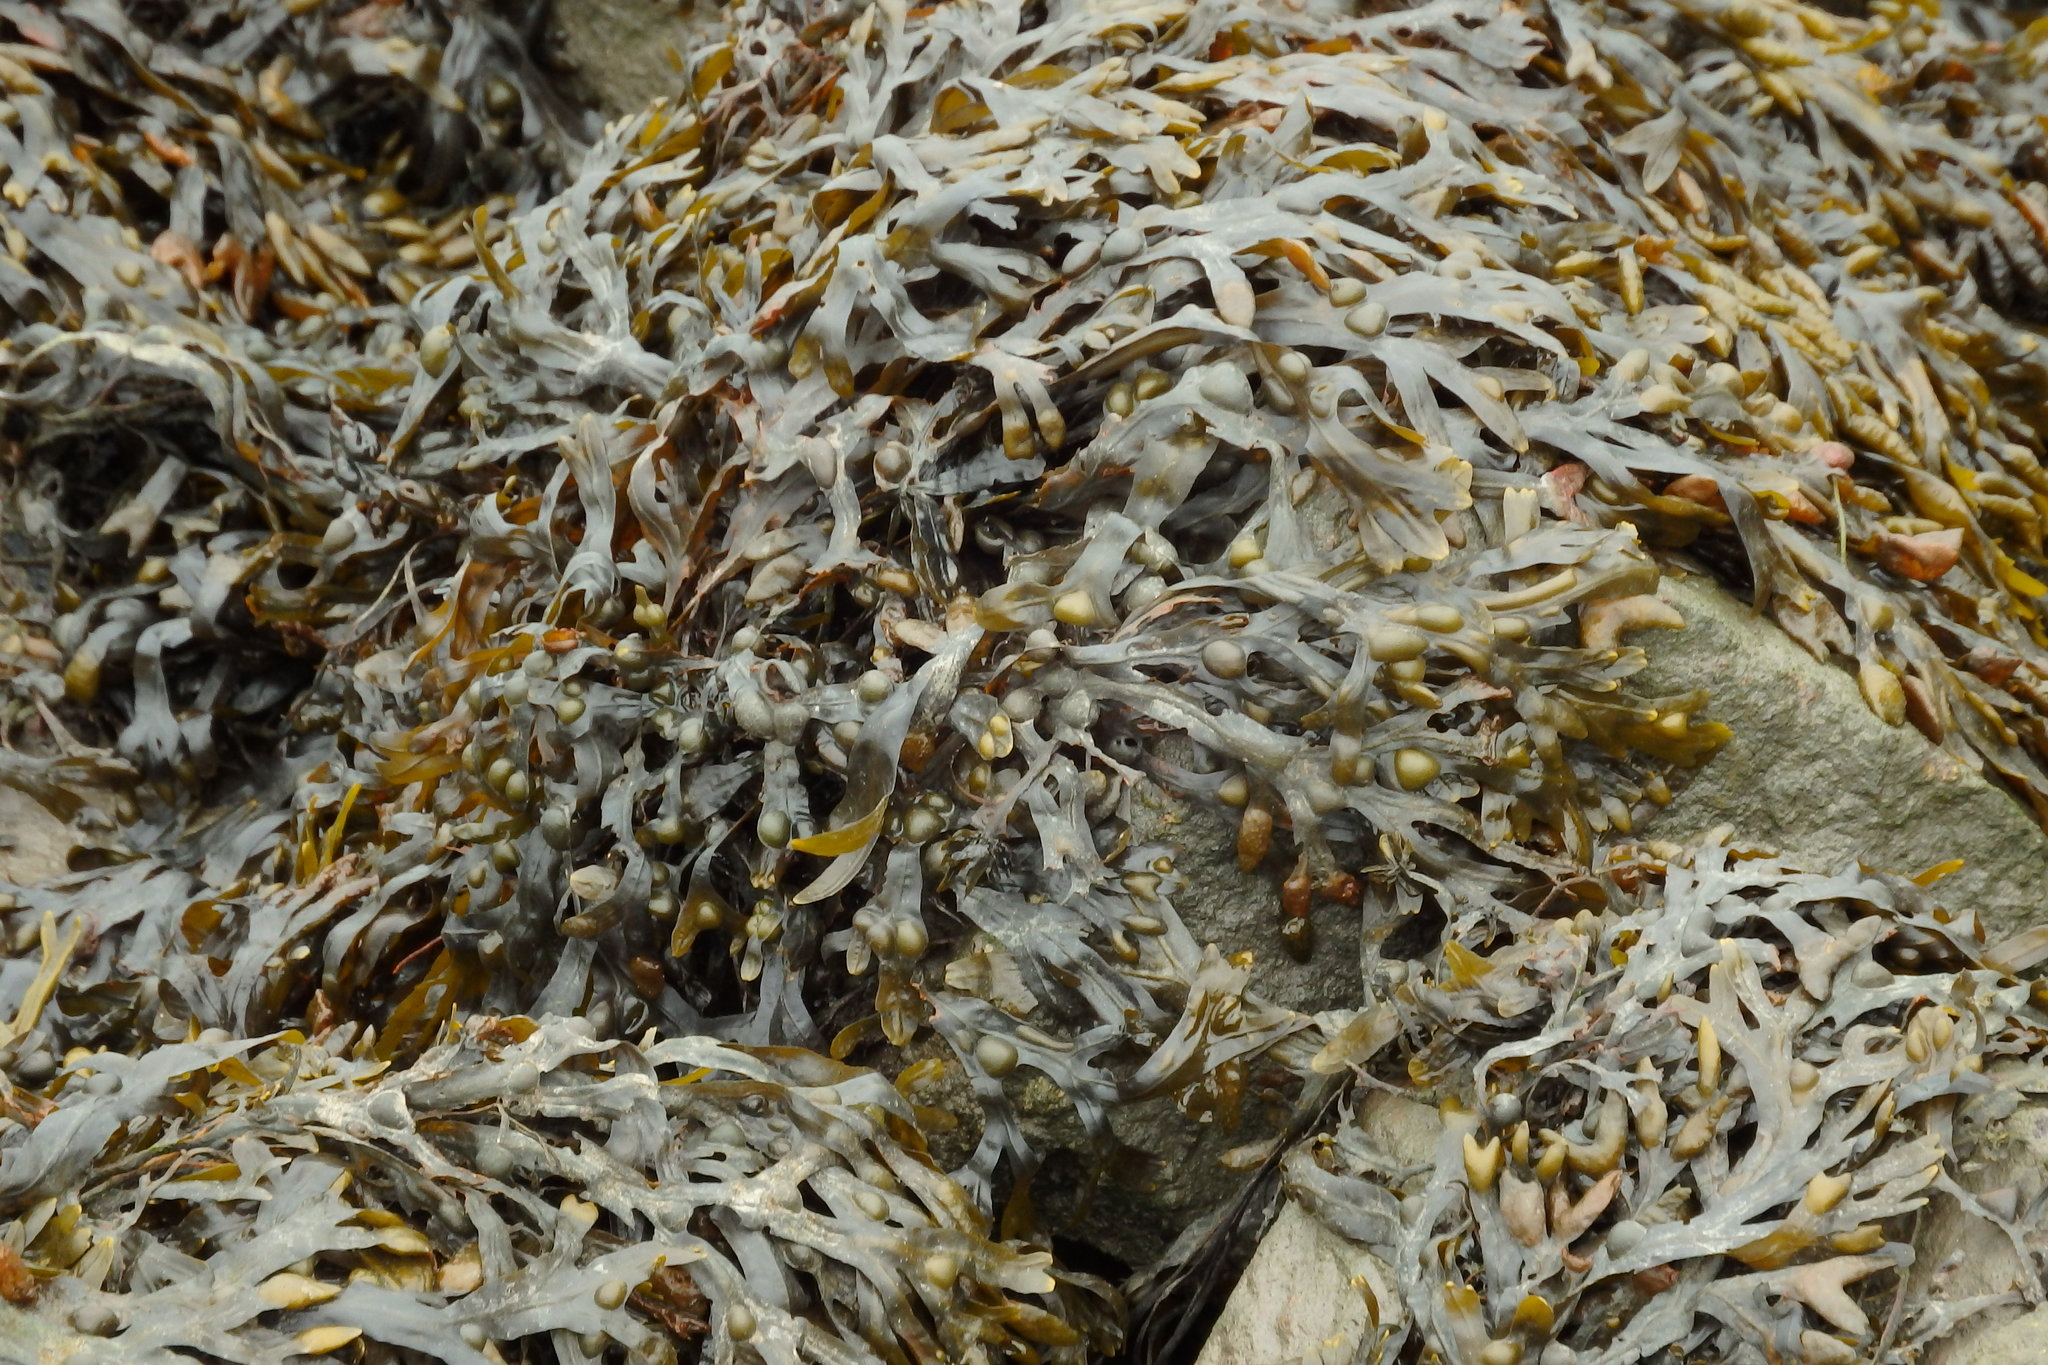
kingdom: Chromista
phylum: Ochrophyta
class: Phaeophyceae
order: Fucales
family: Fucaceae
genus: Fucus
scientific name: Fucus vesiculosus
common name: Bladder wrack
